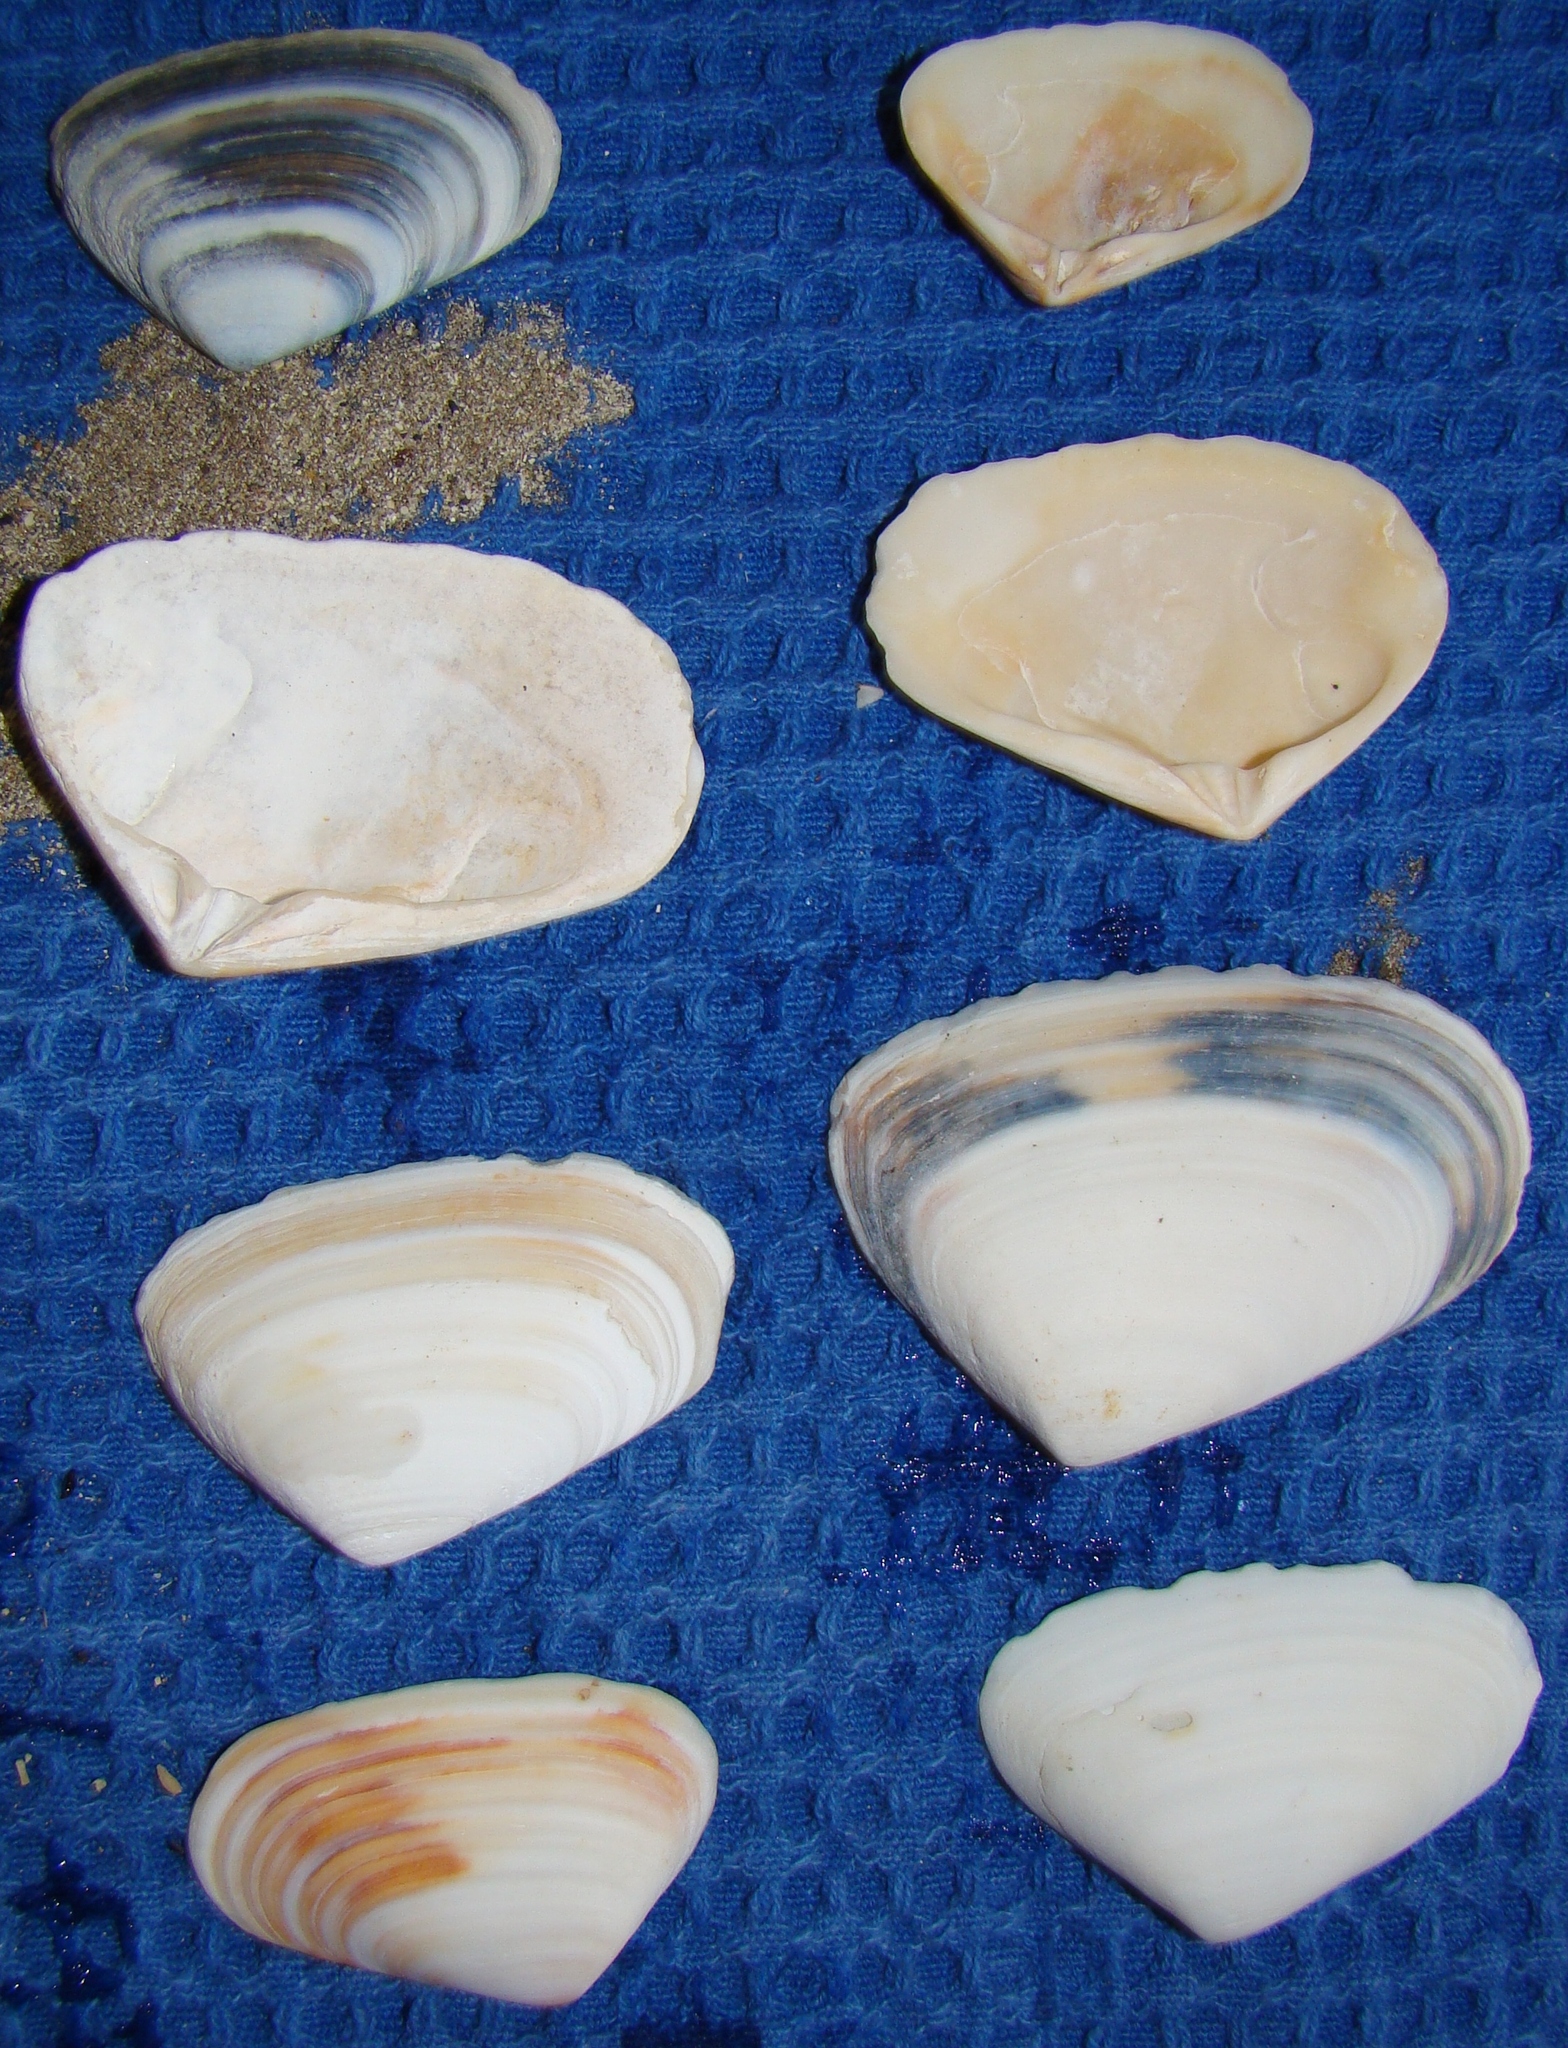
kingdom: Animalia
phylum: Mollusca
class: Bivalvia
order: Venerida
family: Mesodesmatidae
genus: Paphies
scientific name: Paphies donacina
